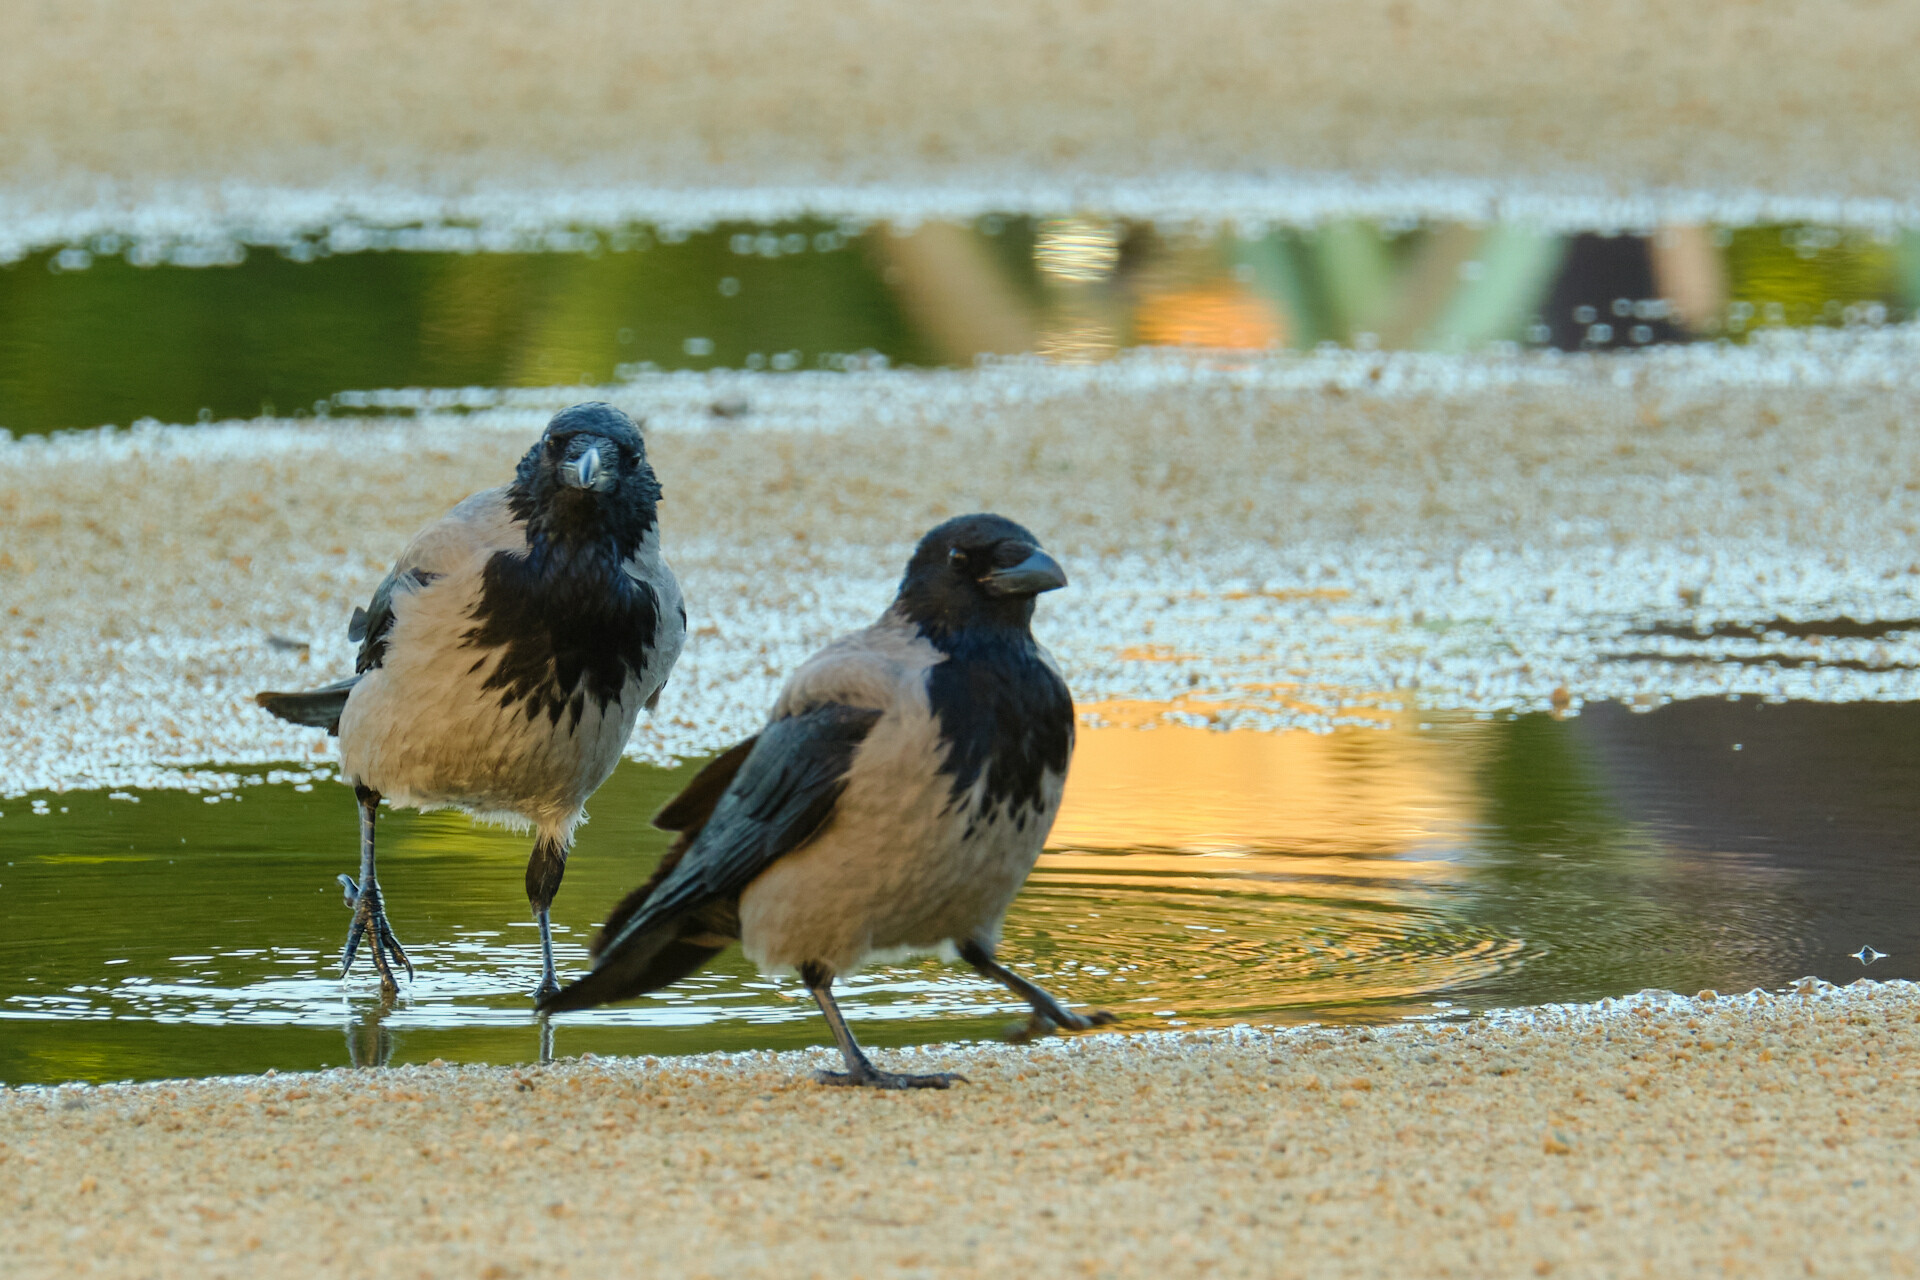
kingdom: Animalia
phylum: Chordata
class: Aves
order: Passeriformes
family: Corvidae
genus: Corvus
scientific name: Corvus cornix
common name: Hooded crow
